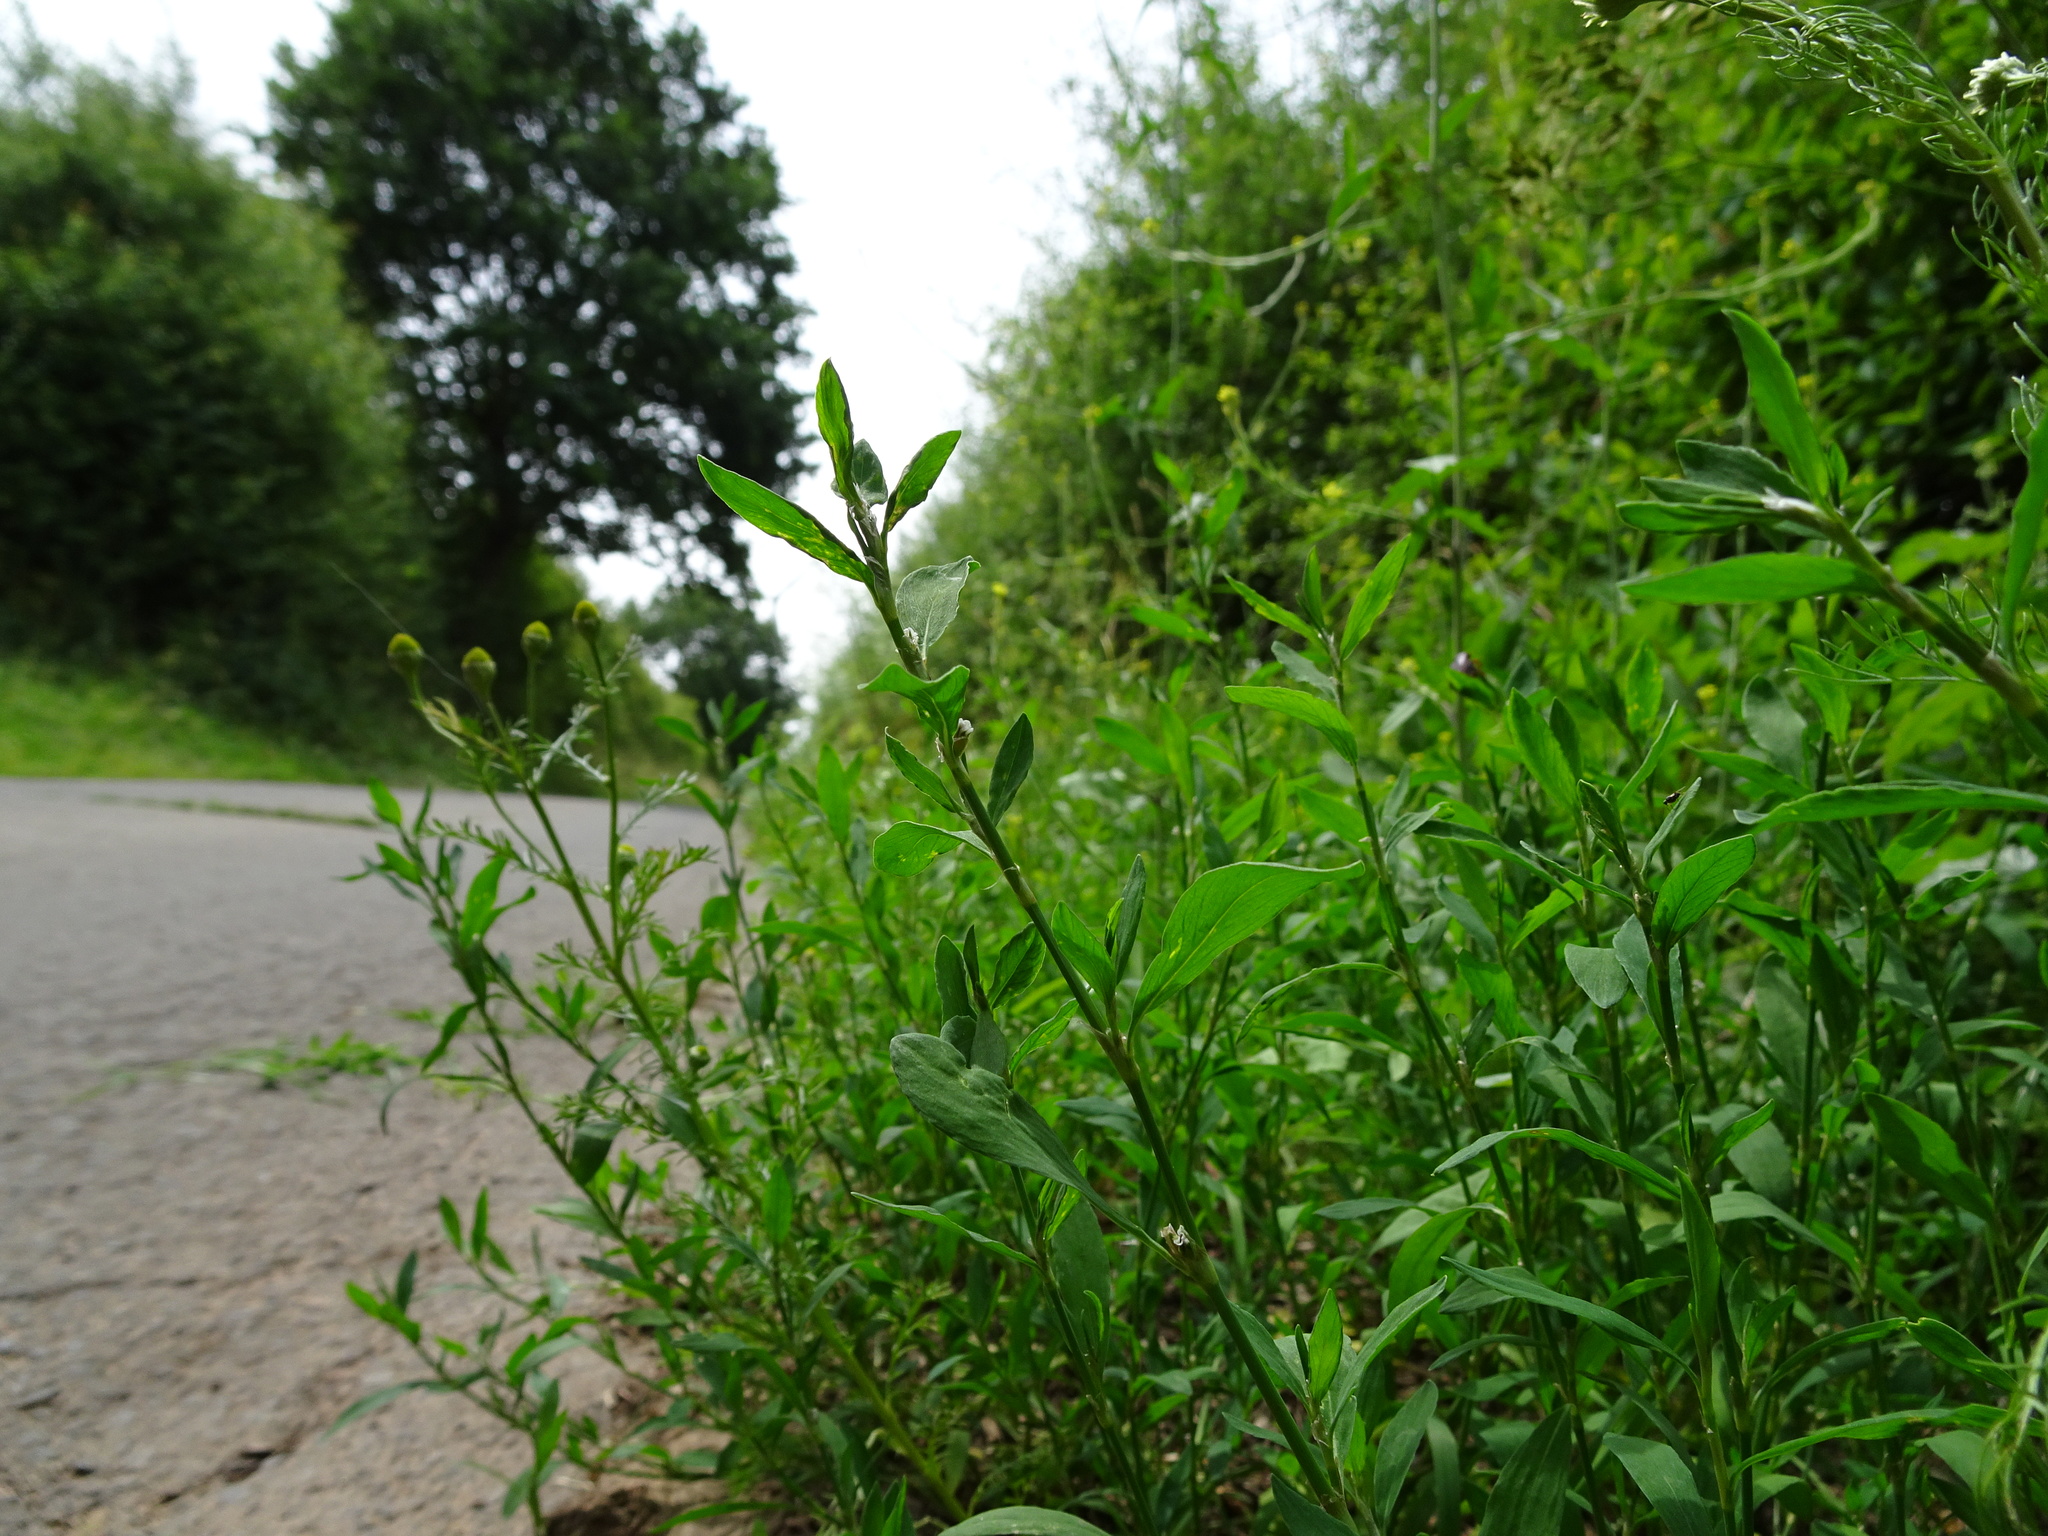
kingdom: Plantae
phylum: Tracheophyta
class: Magnoliopsida
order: Caryophyllales
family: Polygonaceae
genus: Polygonum
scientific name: Polygonum aviculare
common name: Prostrate knotweed
